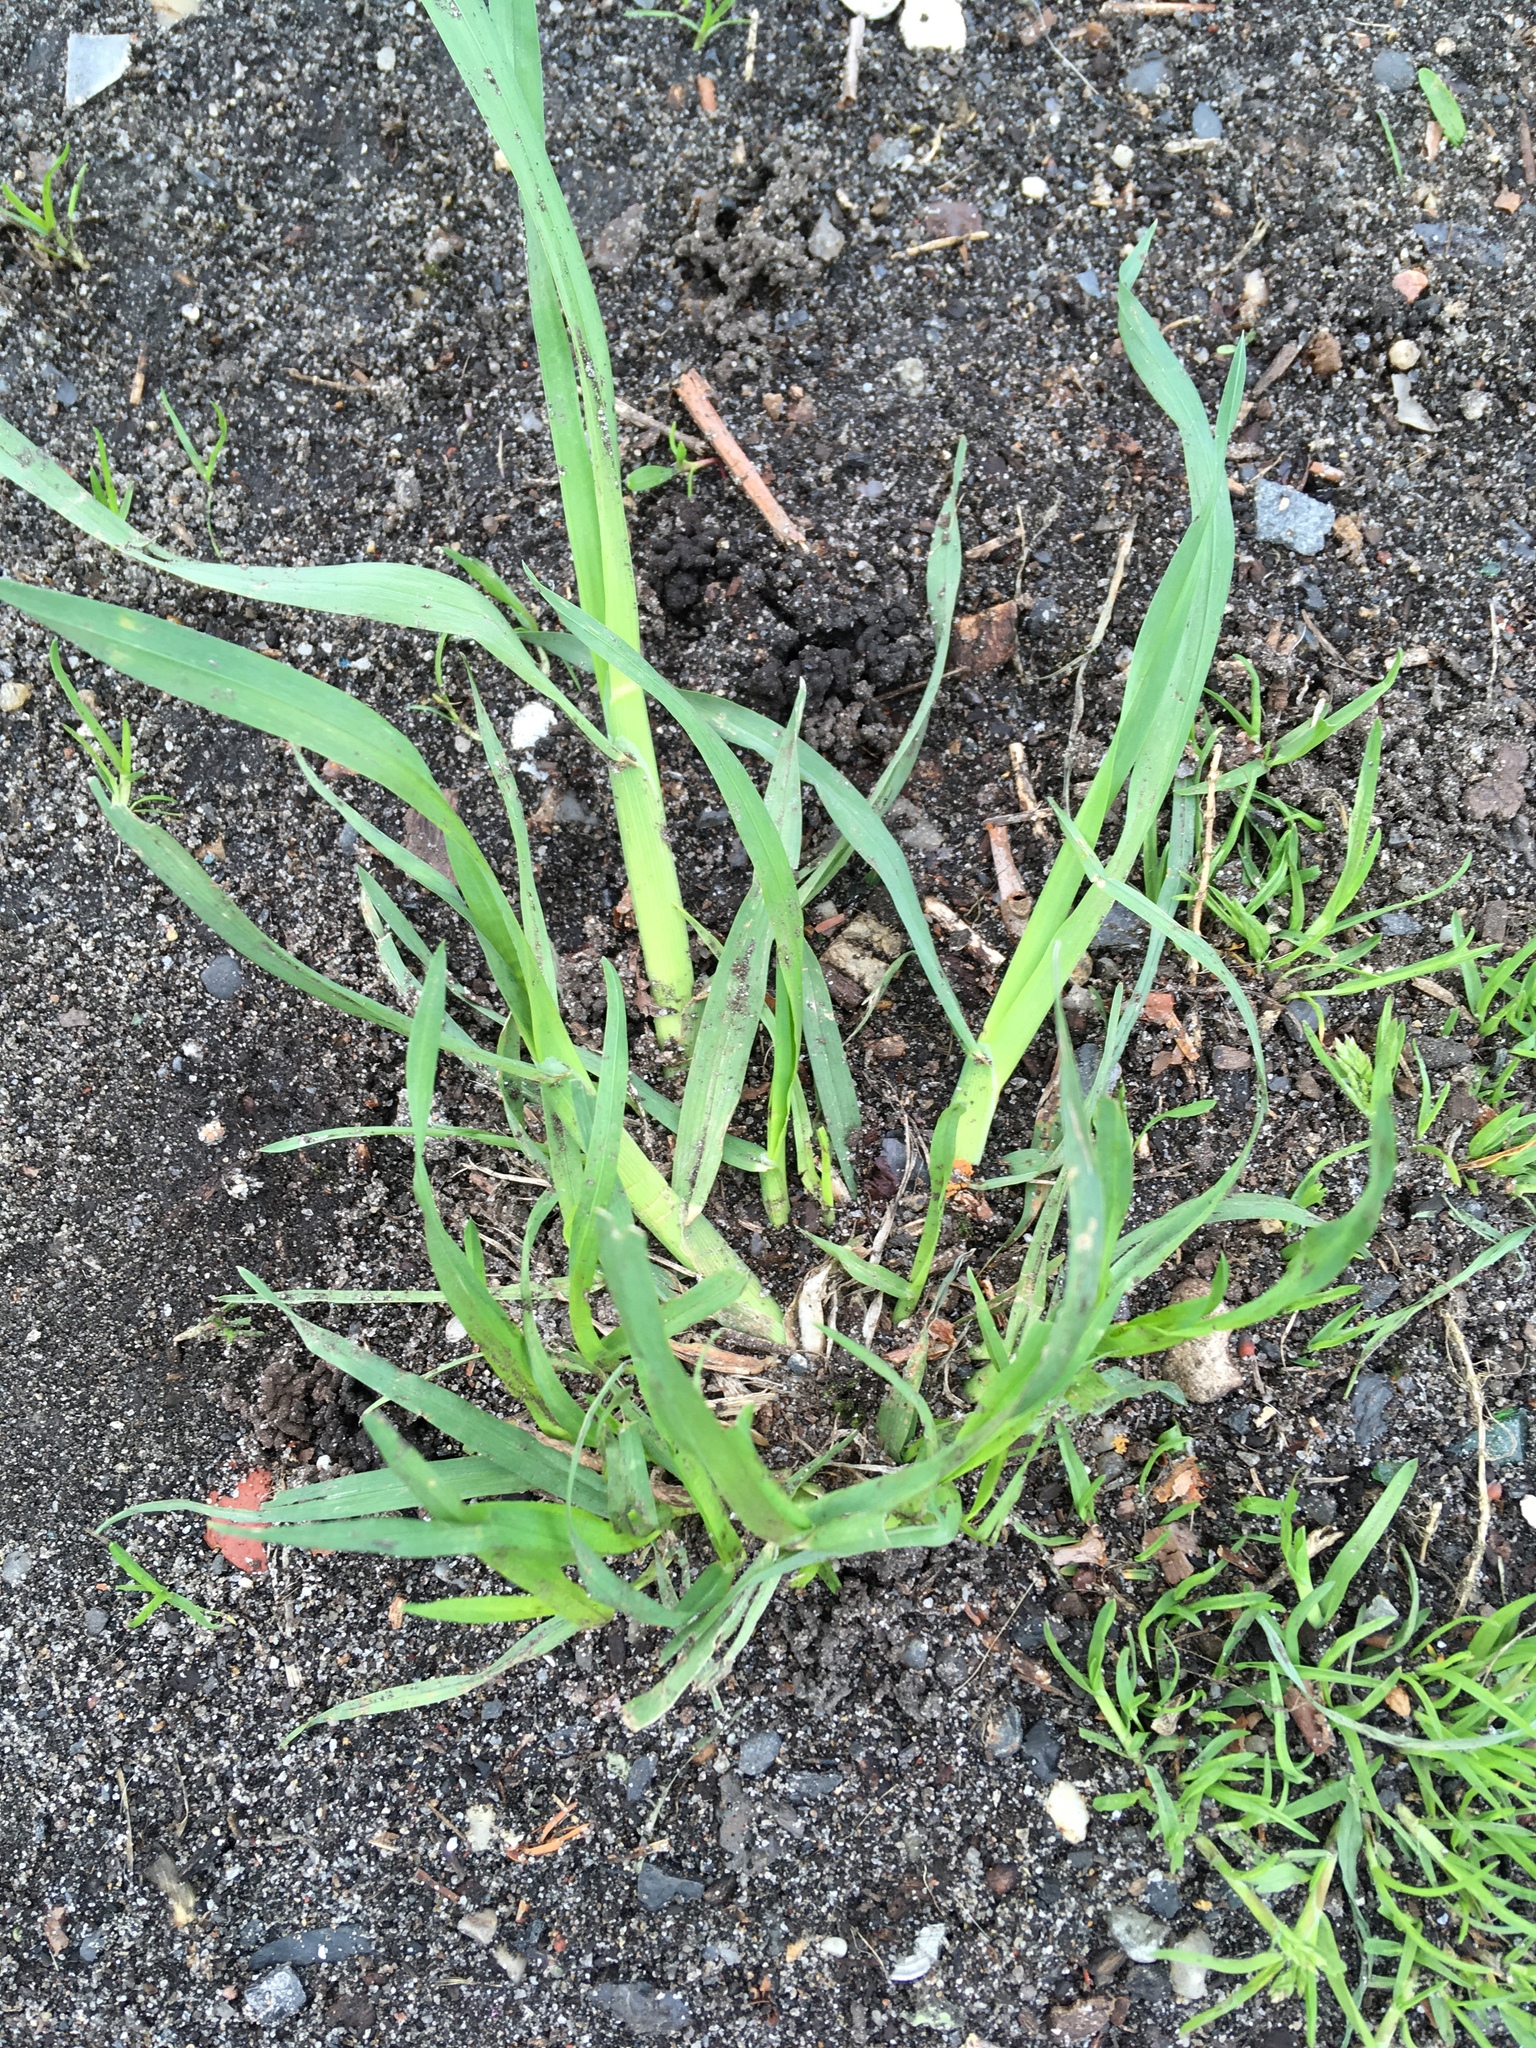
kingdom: Plantae
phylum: Tracheophyta
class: Liliopsida
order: Poales
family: Poaceae
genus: Dactylis
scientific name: Dactylis glomerata
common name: Orchardgrass
